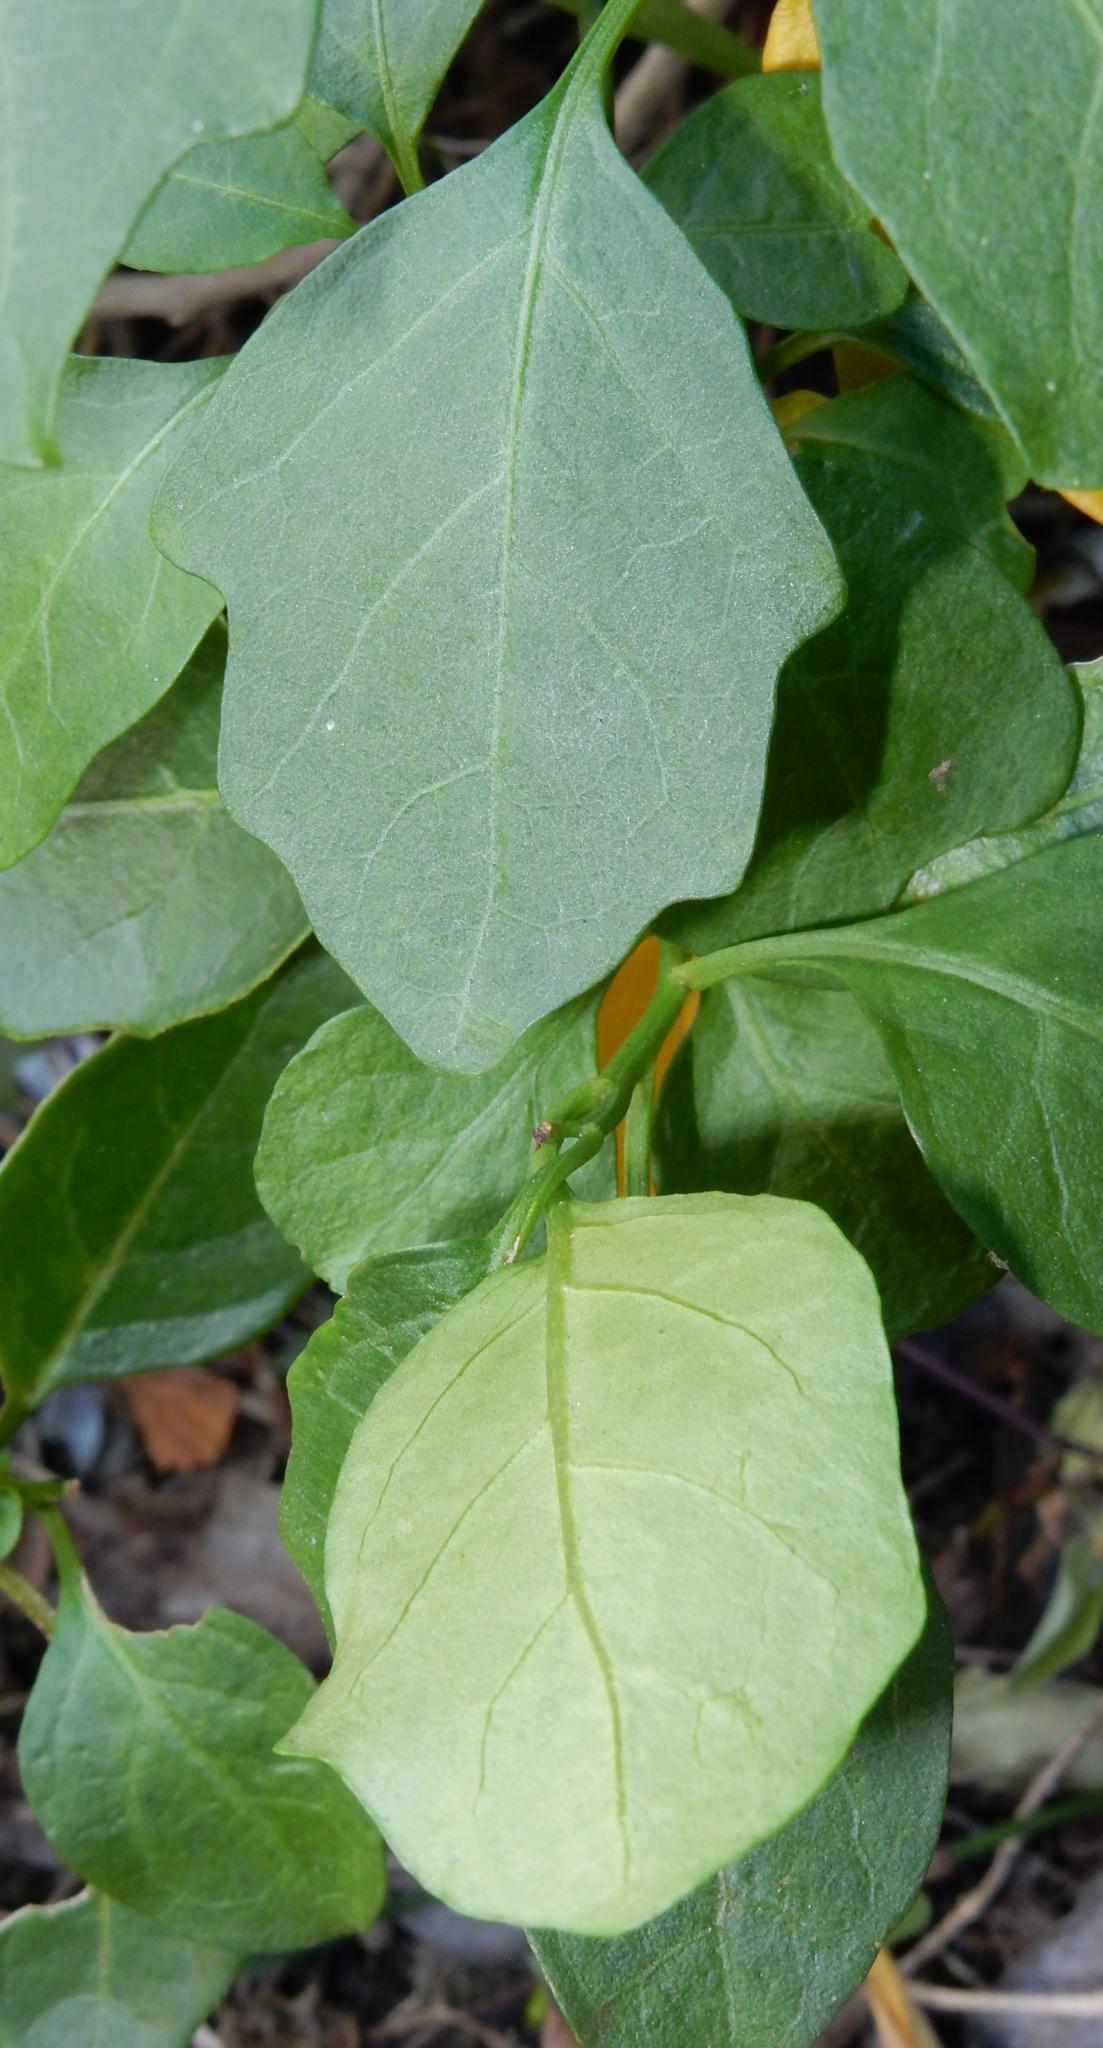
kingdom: Plantae
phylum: Tracheophyta
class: Magnoliopsida
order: Solanales
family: Solanaceae
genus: Solanum
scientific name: Solanum africanum
